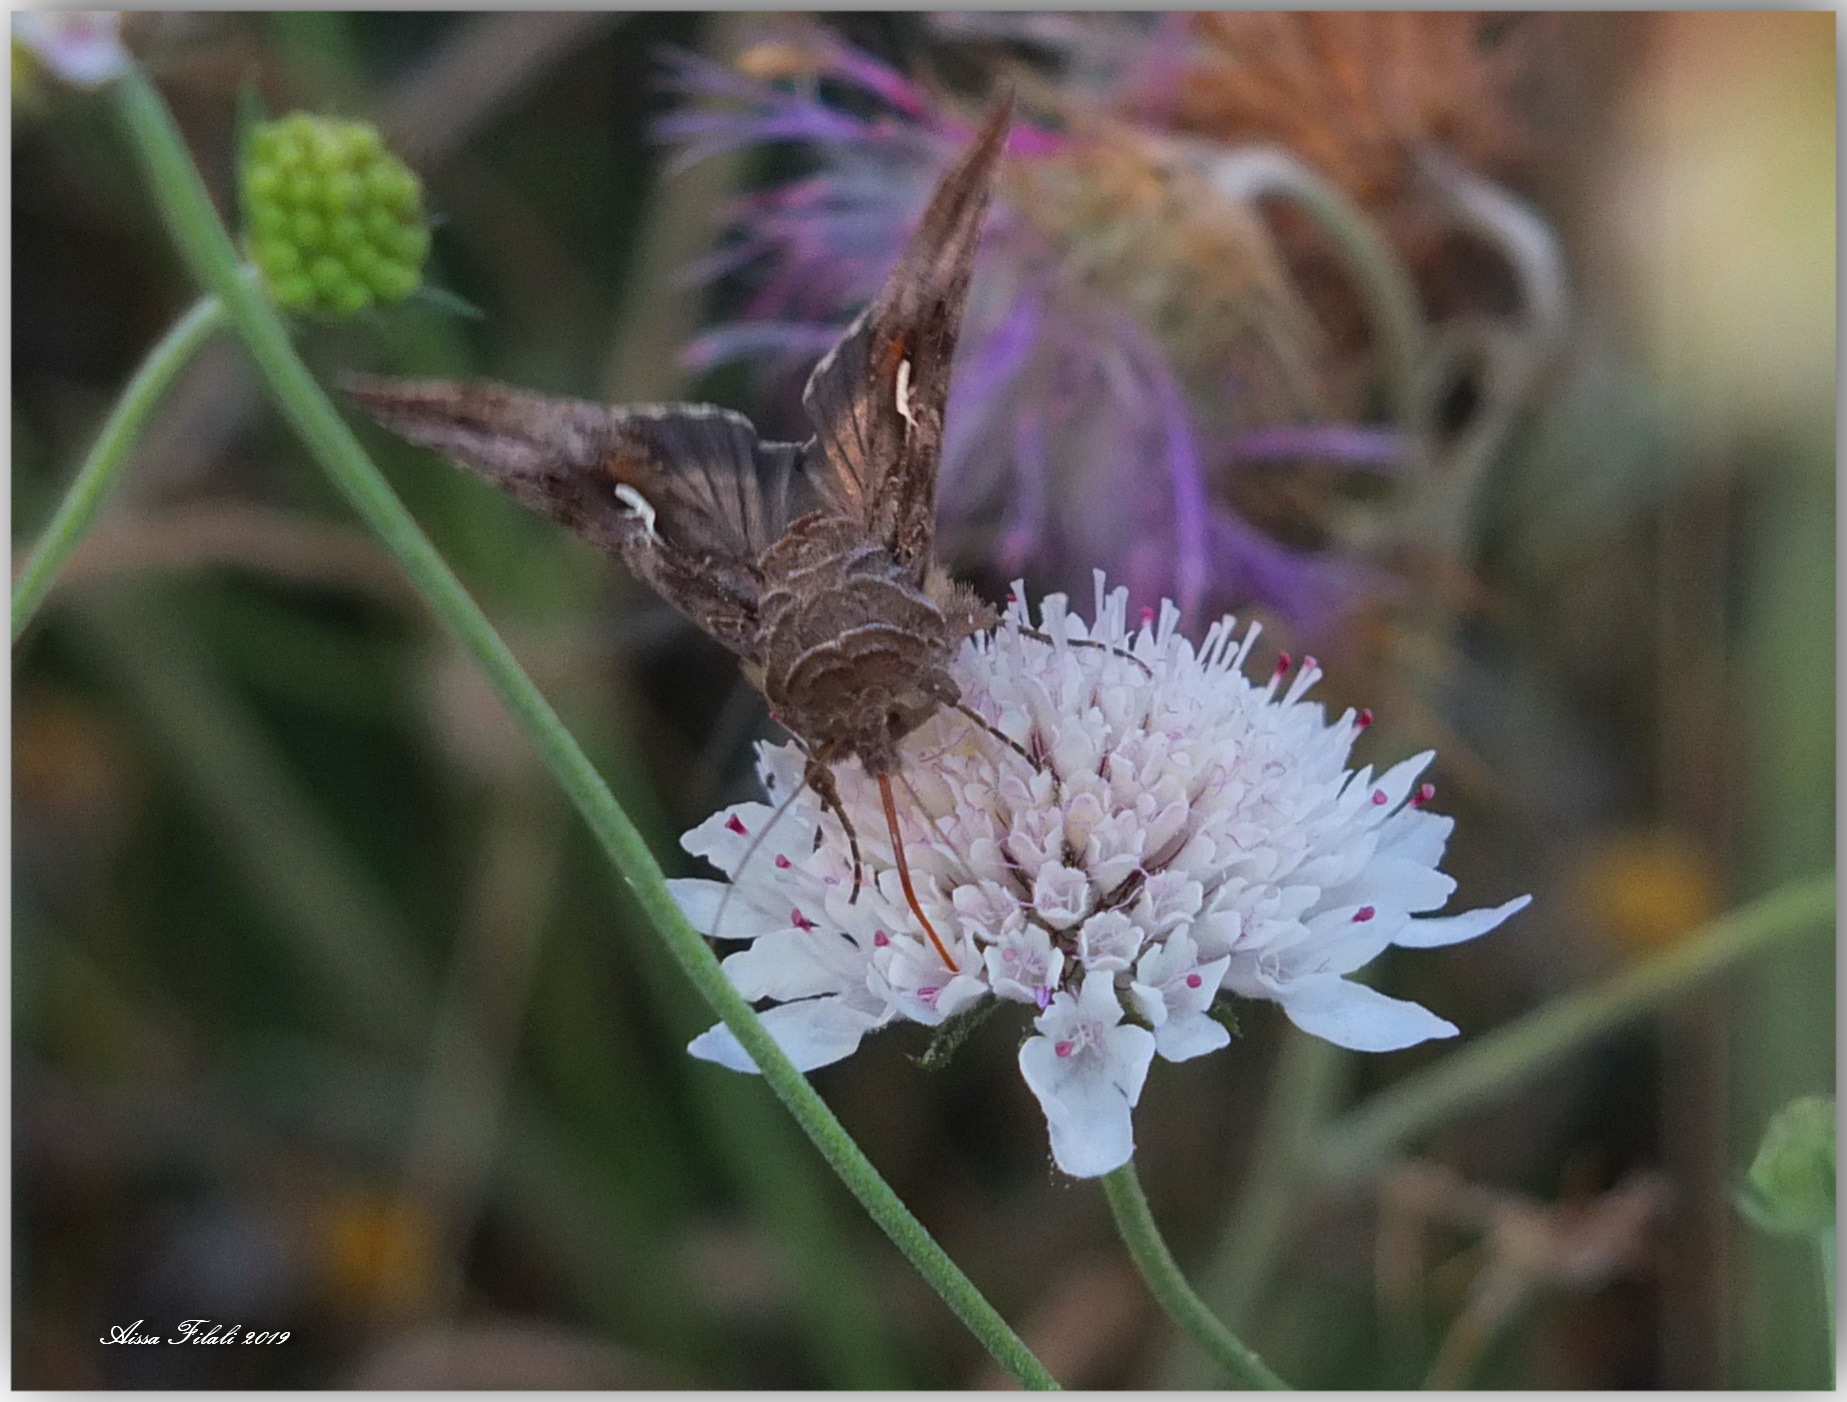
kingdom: Animalia
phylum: Arthropoda
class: Insecta
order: Lepidoptera
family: Noctuidae
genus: Autographa
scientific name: Autographa gamma
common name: Silver y
